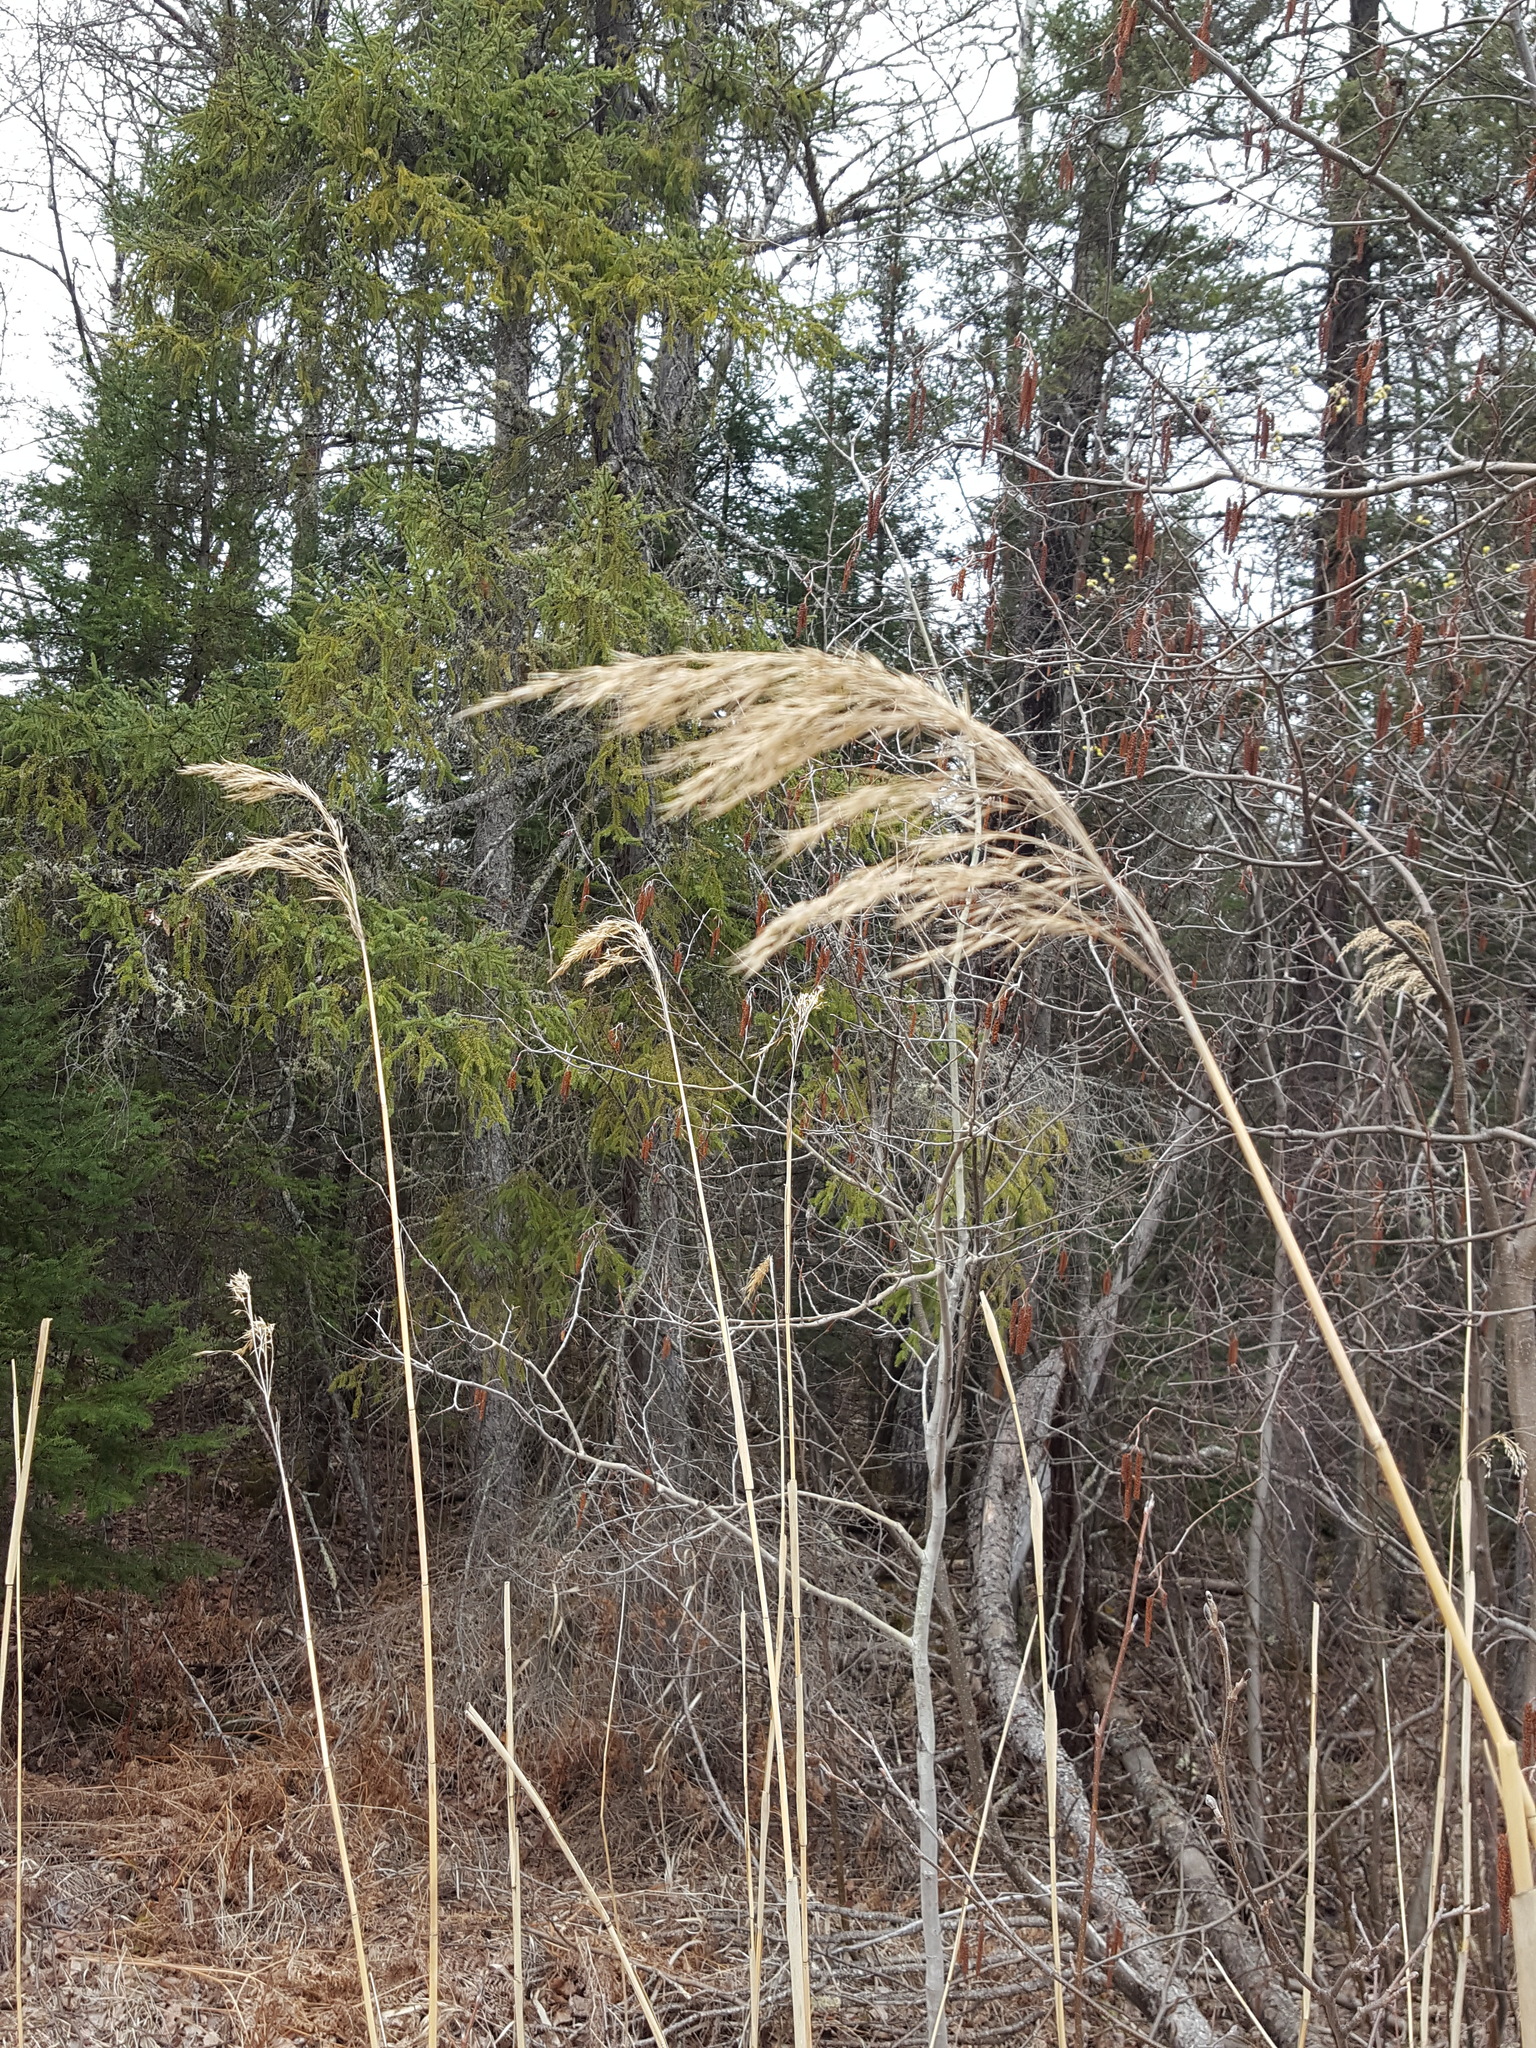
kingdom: Plantae
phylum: Tracheophyta
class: Liliopsida
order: Poales
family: Poaceae
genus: Phragmites
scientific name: Phragmites australis
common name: Common reed
